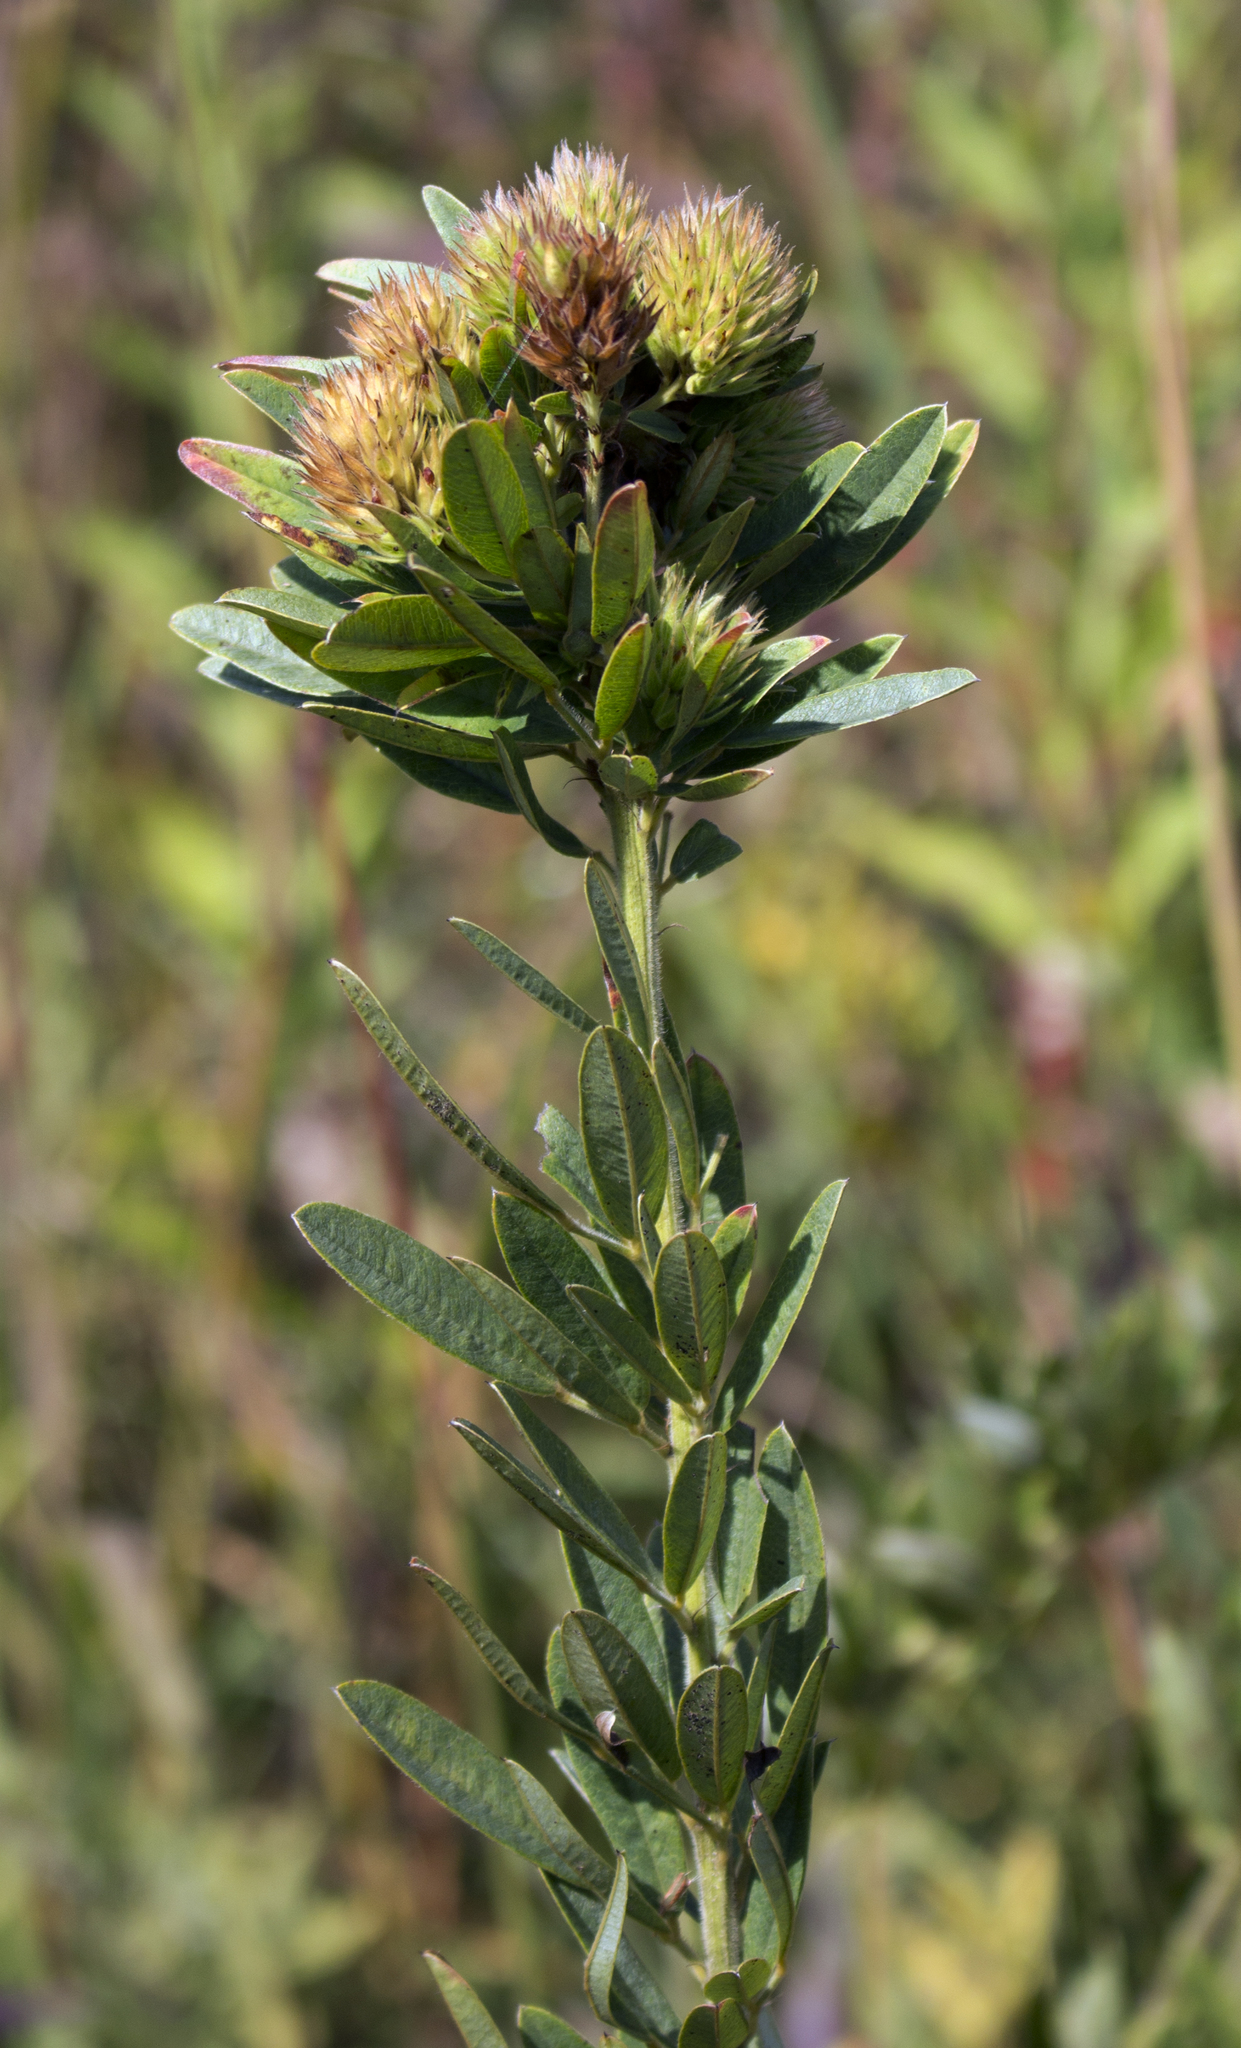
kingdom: Plantae
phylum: Tracheophyta
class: Magnoliopsida
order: Fabales
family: Fabaceae
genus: Lespedeza
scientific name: Lespedeza capitata
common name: Dusty clover
